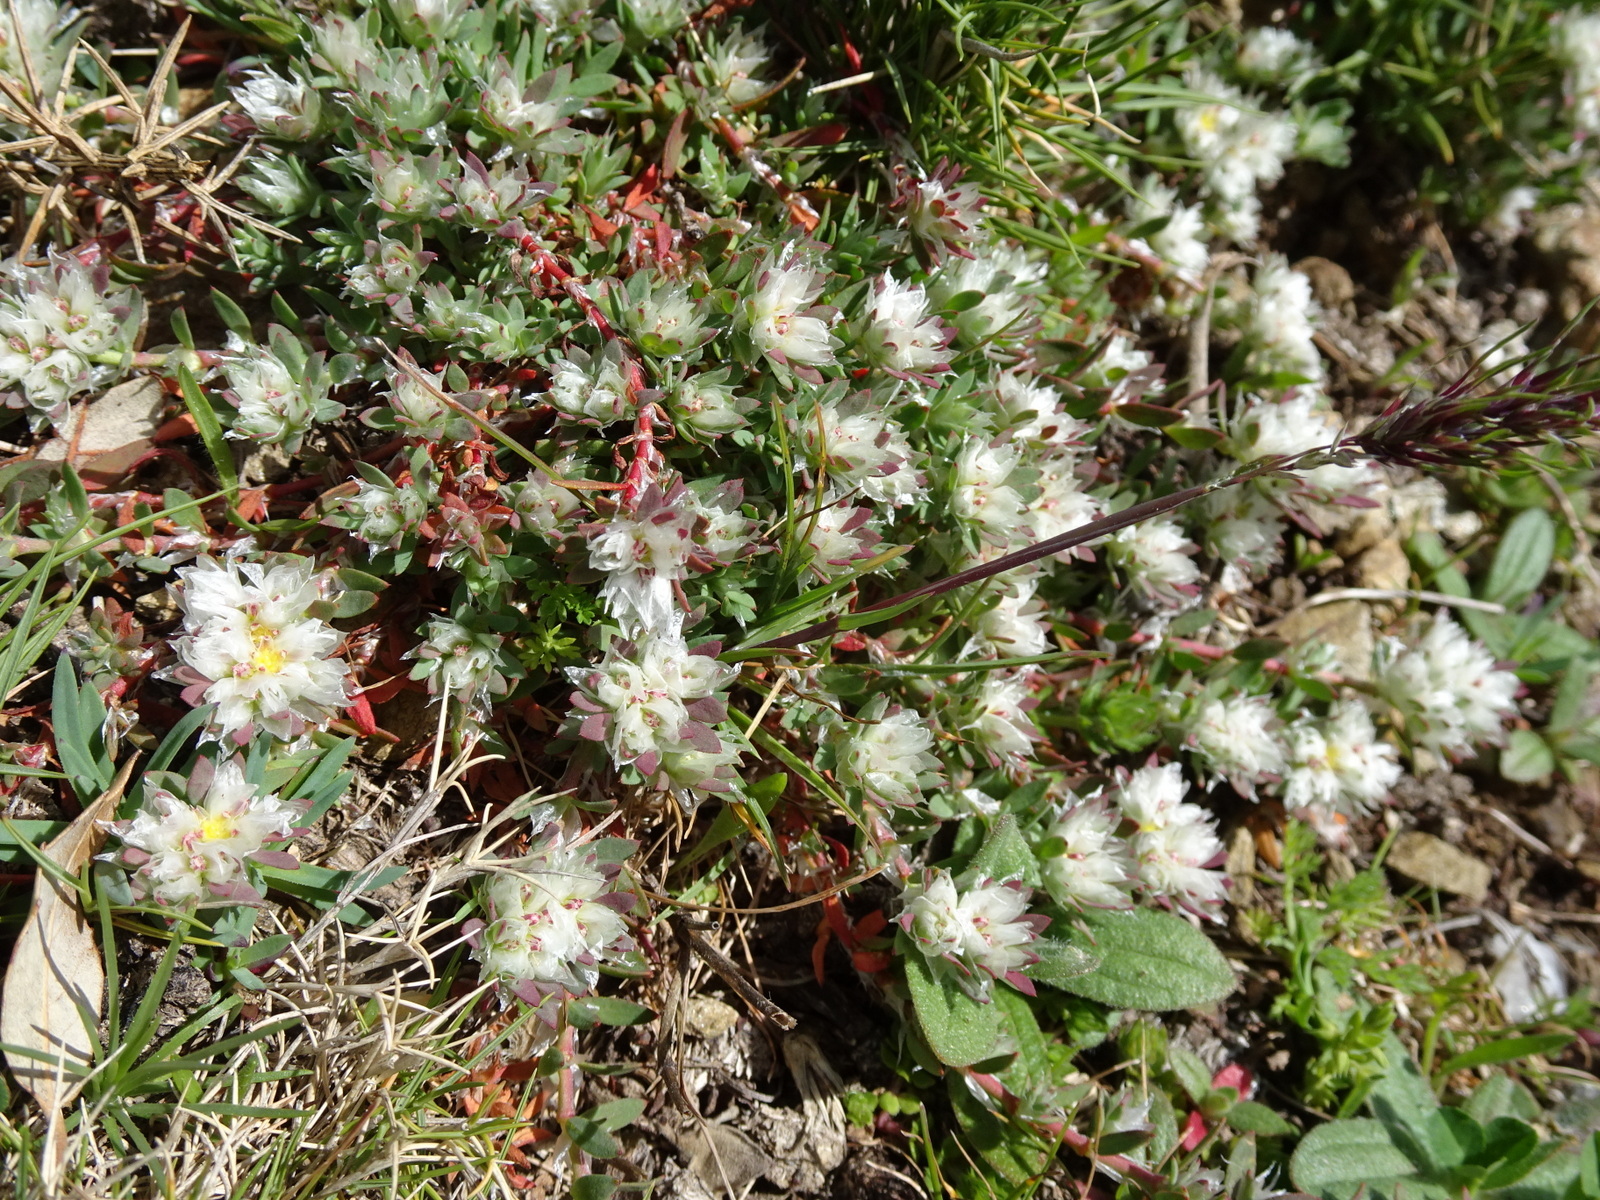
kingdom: Plantae
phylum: Tracheophyta
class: Magnoliopsida
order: Caryophyllales
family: Caryophyllaceae
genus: Paronychia
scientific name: Paronychia argentea
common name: Silver nailroot
